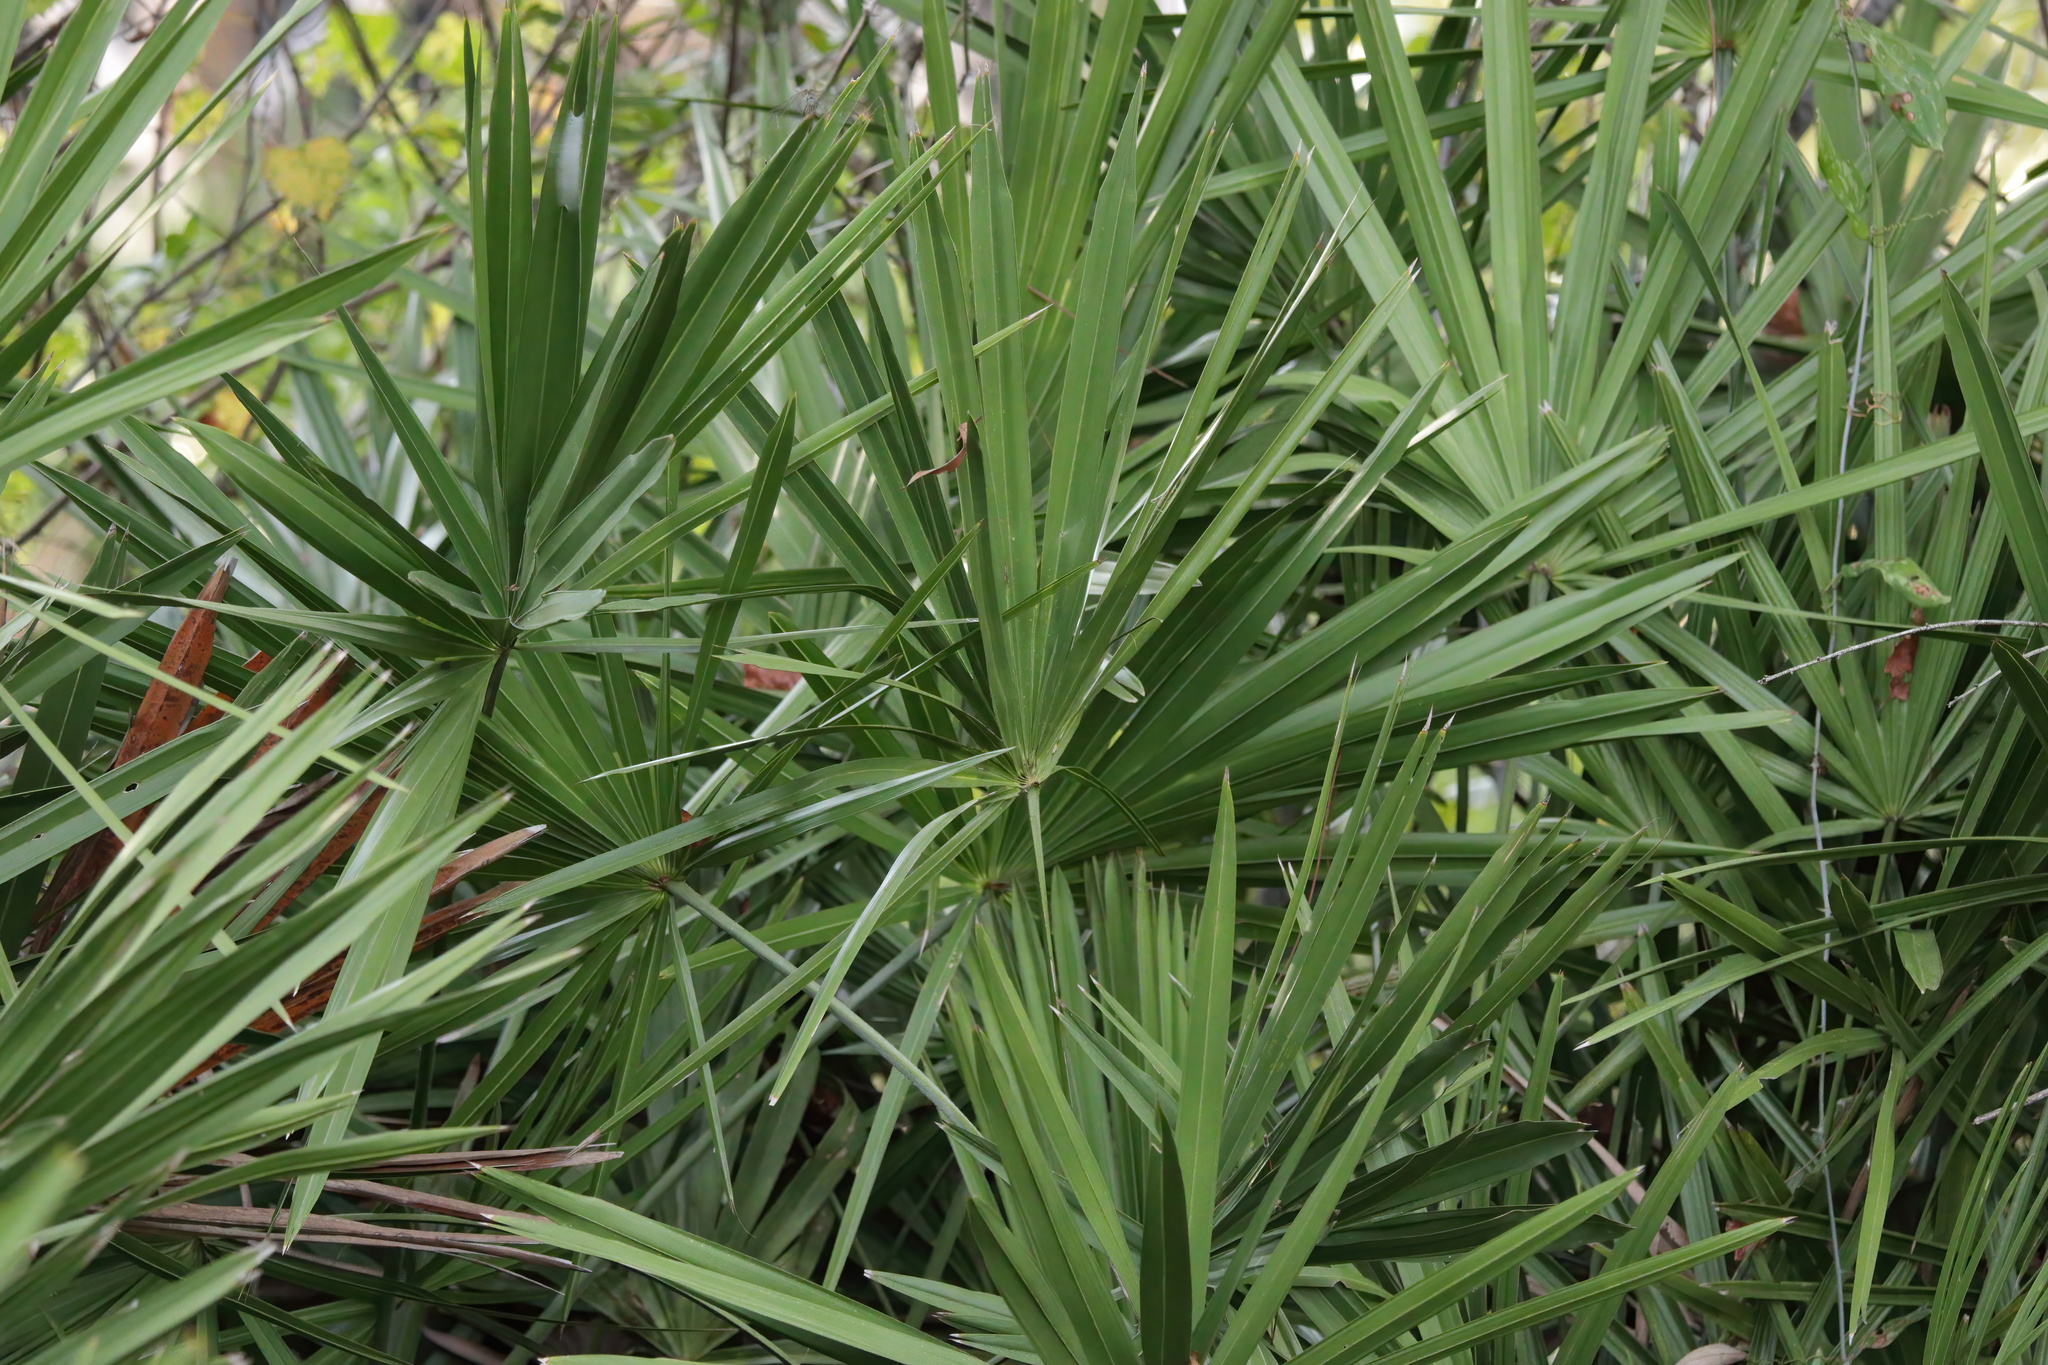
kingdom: Plantae
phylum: Tracheophyta
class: Liliopsida
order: Arecales
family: Arecaceae
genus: Serenoa
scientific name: Serenoa repens
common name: Saw-palmetto
